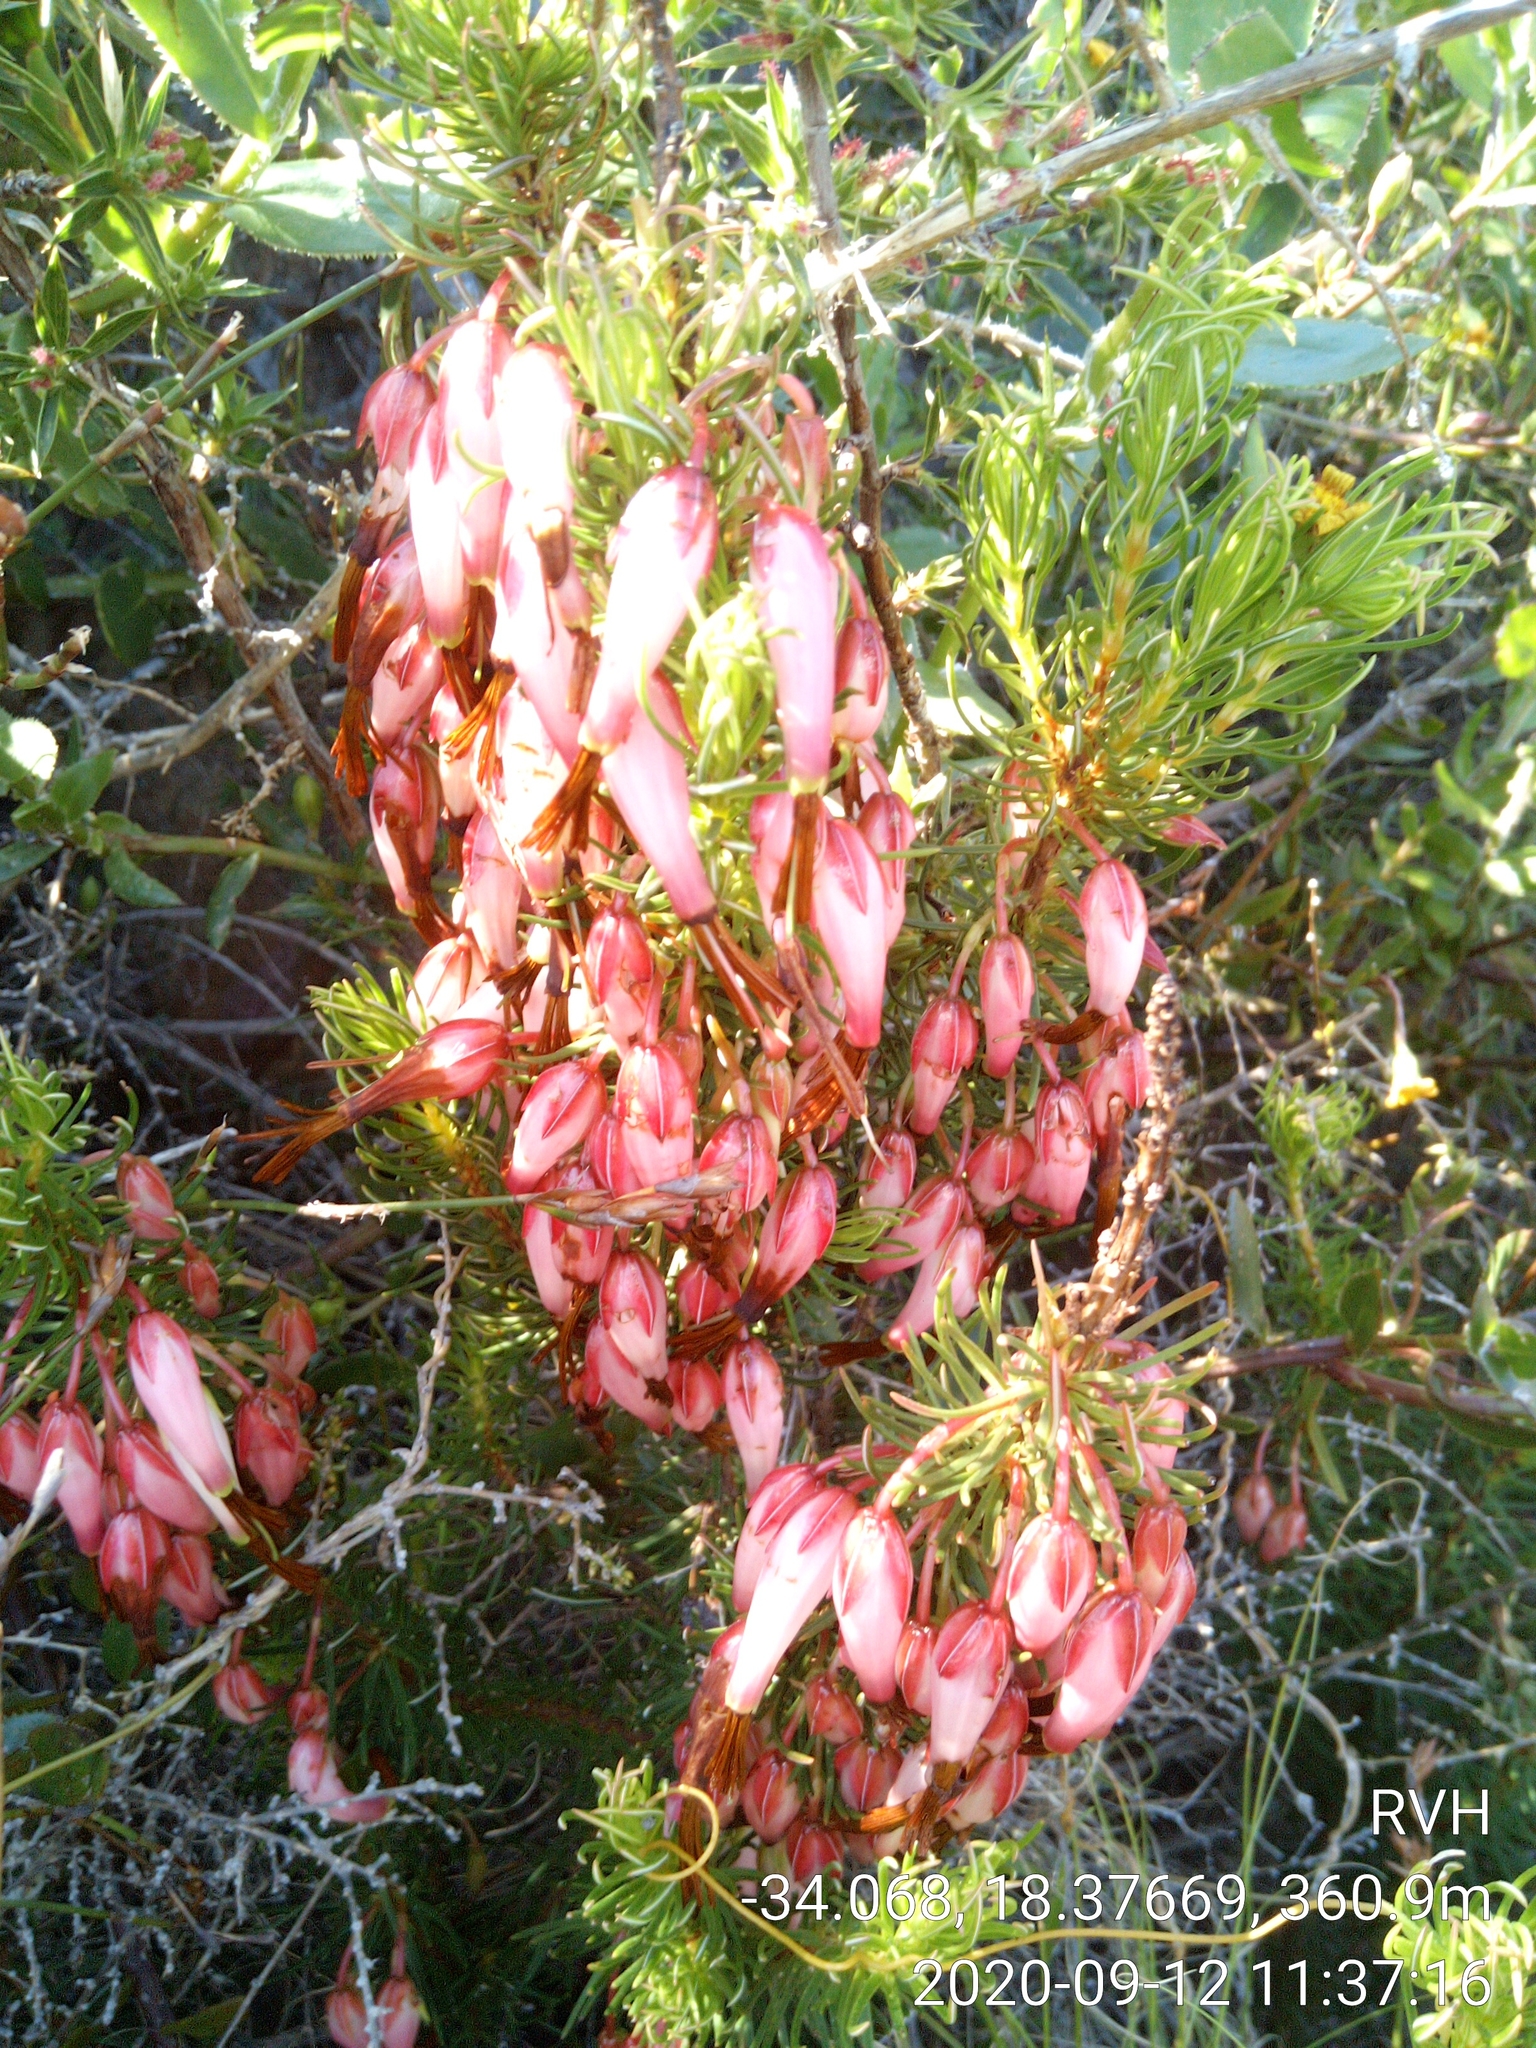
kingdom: Plantae
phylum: Tracheophyta
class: Magnoliopsida
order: Ericales
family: Ericaceae
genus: Erica
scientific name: Erica plukenetii
